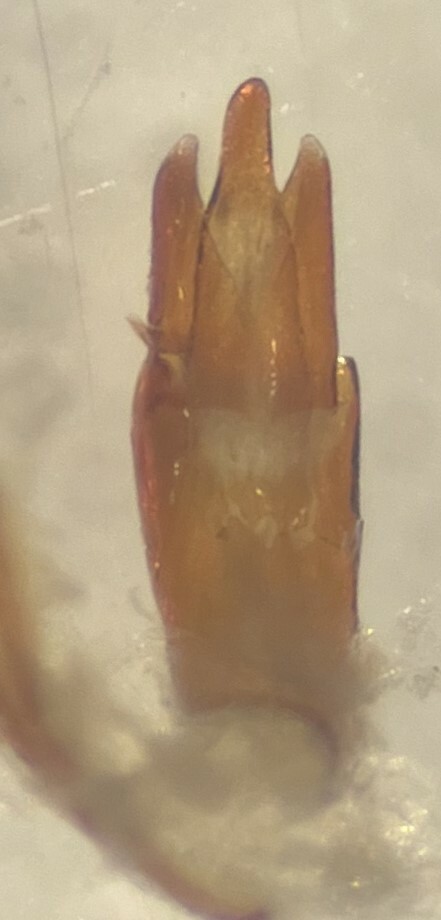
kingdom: Animalia
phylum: Arthropoda
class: Insecta
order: Coleoptera
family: Elmidae
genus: Macrelmis
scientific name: Macrelmis texangusta
